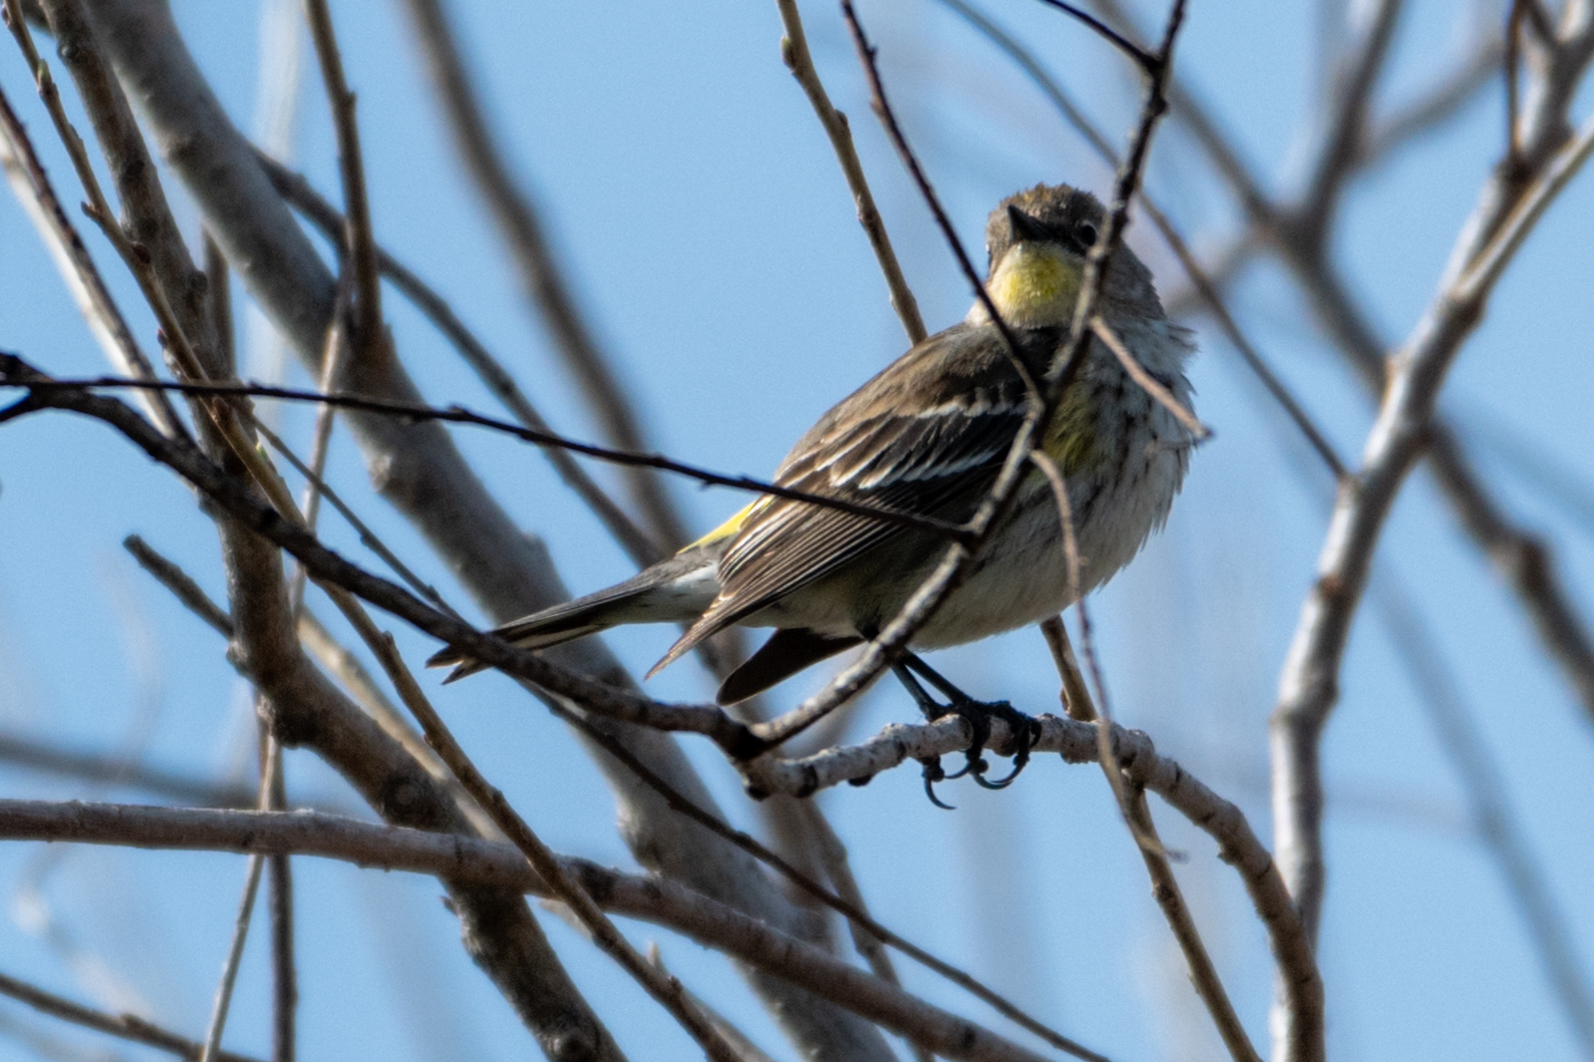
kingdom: Animalia
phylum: Chordata
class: Aves
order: Passeriformes
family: Parulidae
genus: Setophaga
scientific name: Setophaga coronata
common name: Myrtle warbler
